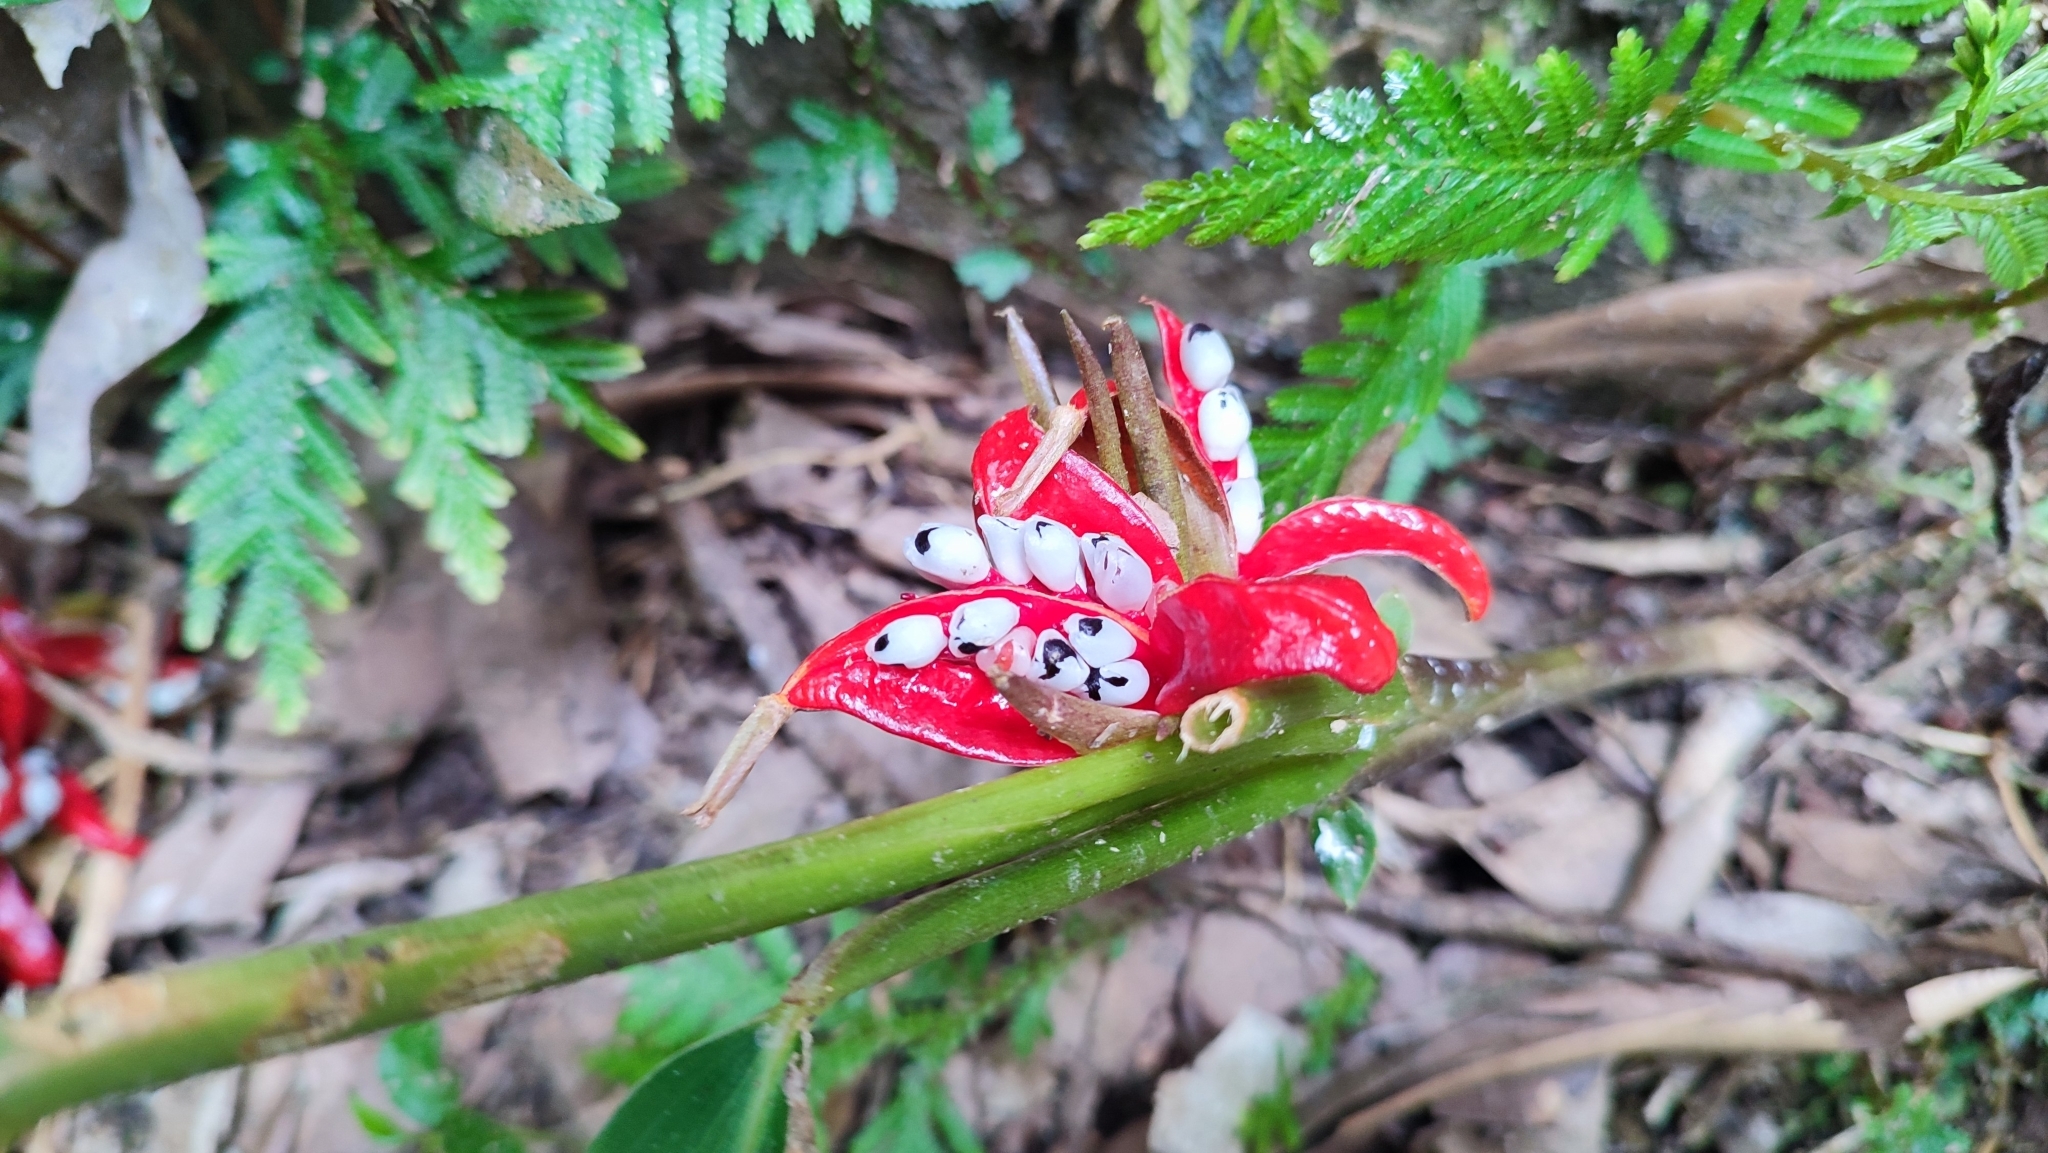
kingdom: Plantae
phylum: Tracheophyta
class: Liliopsida
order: Zingiberales
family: Zingiberaceae
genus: Zingiber
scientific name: Zingiber kawagoii
